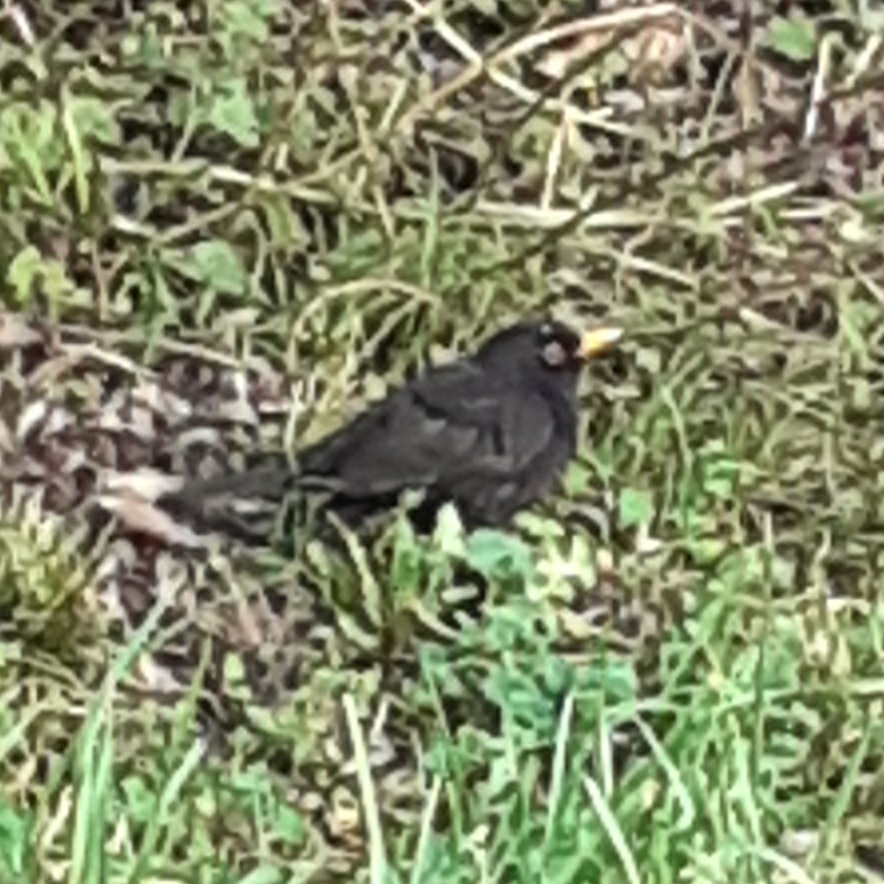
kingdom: Animalia
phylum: Chordata
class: Aves
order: Passeriformes
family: Turdidae
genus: Turdus
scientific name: Turdus merula
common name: Common blackbird
